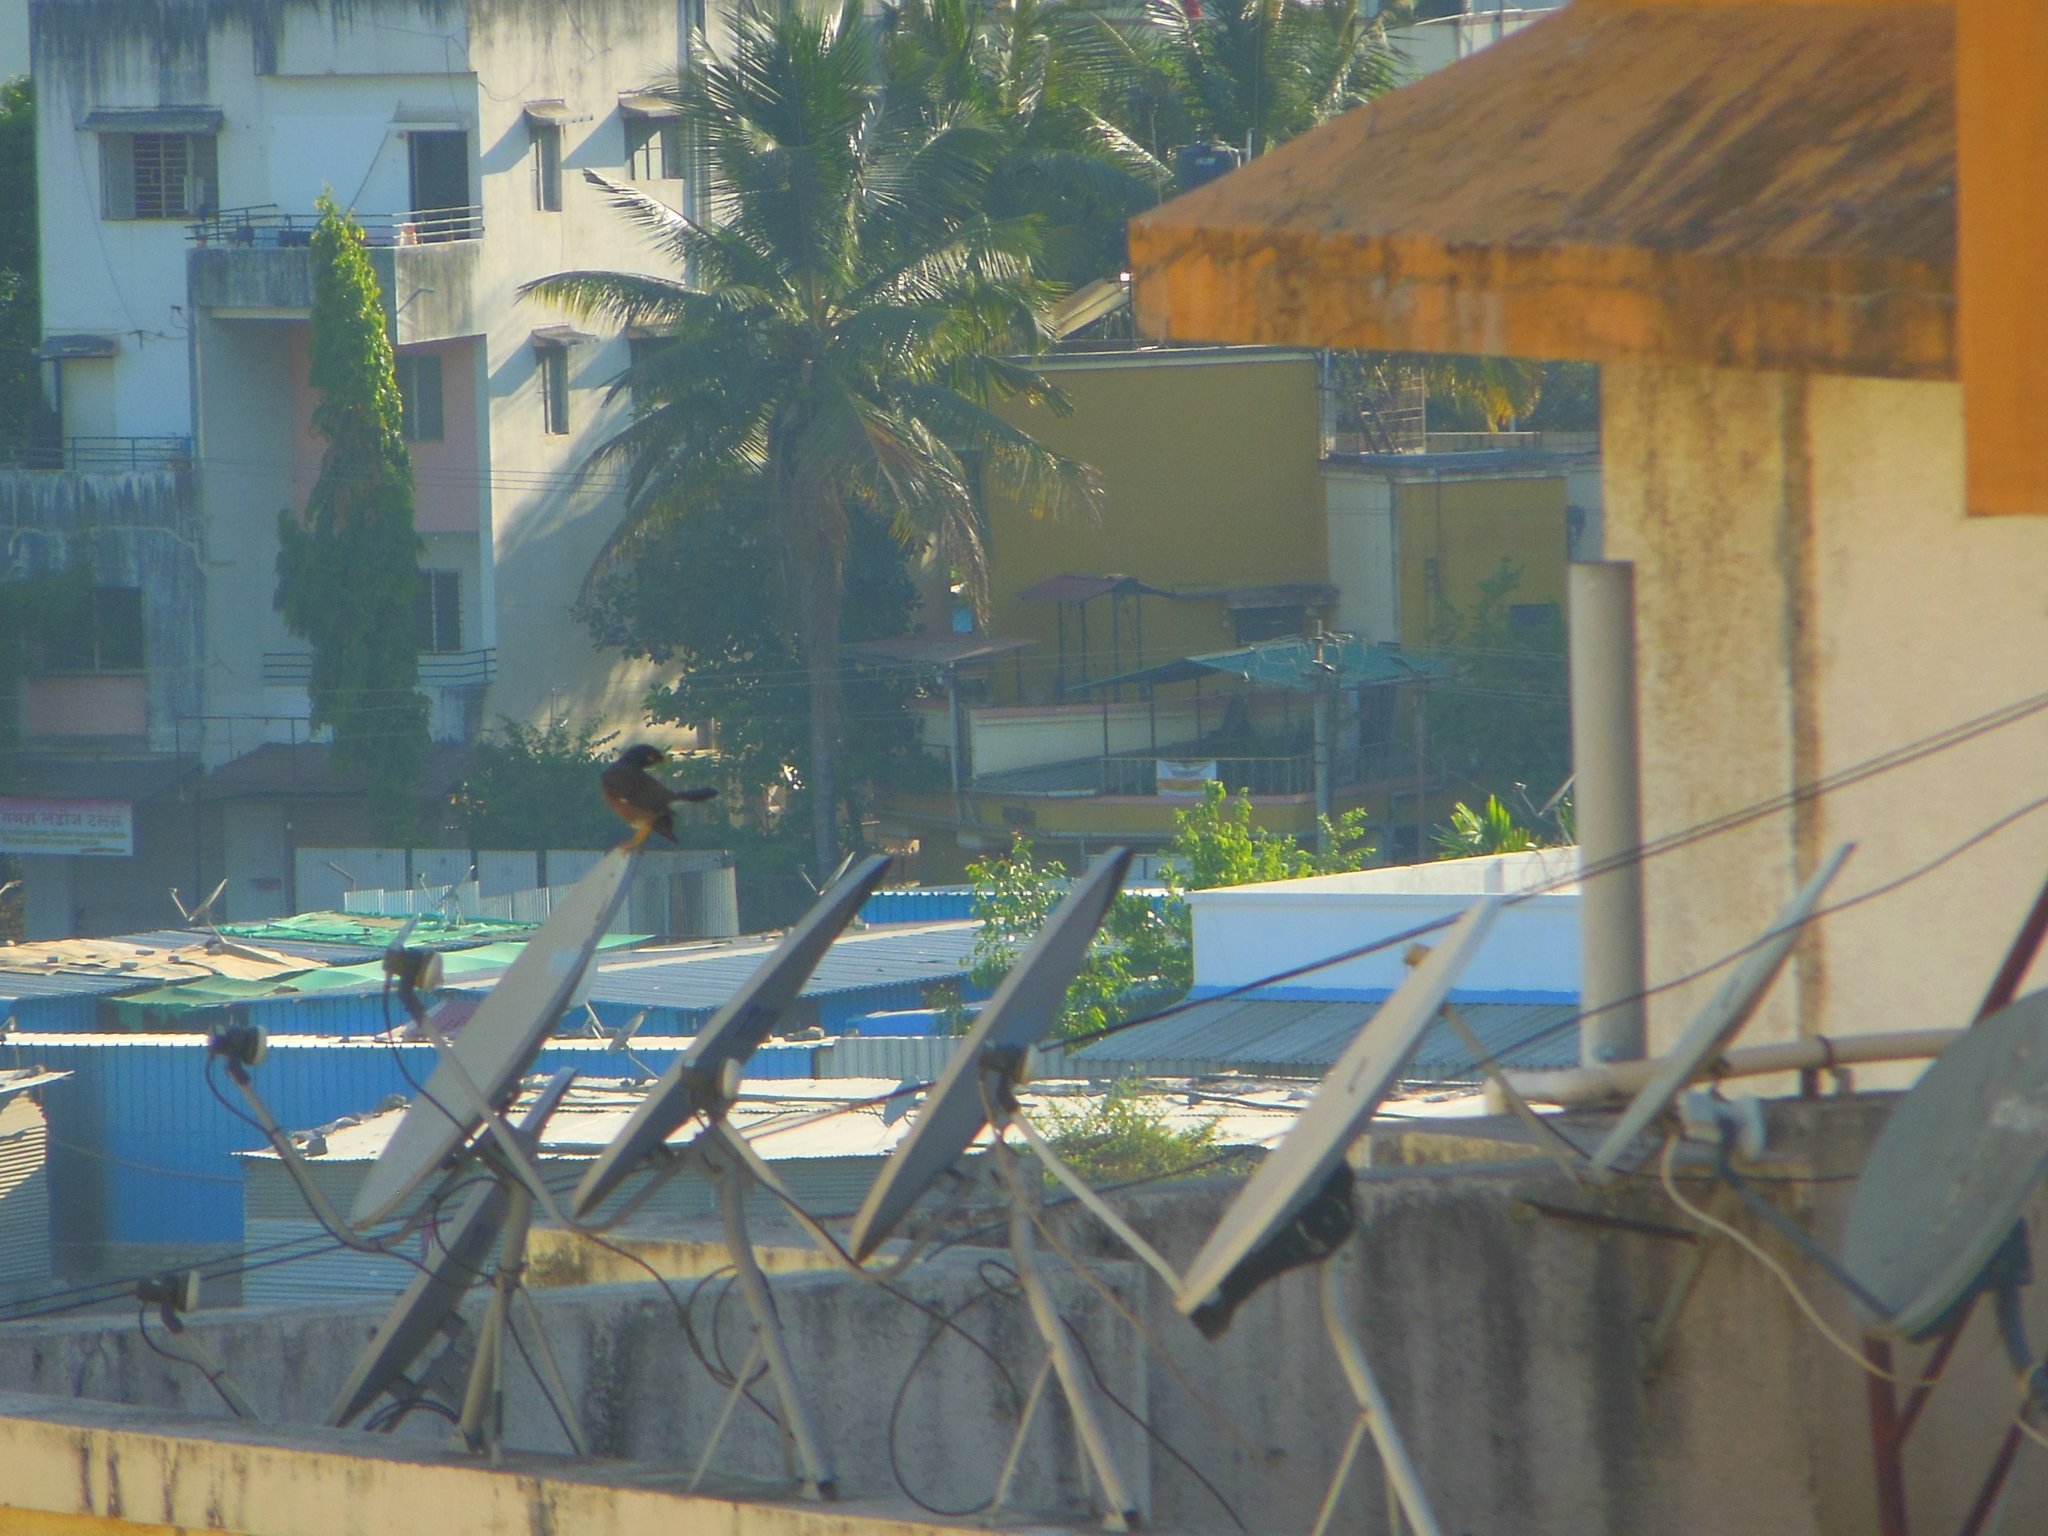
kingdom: Animalia
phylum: Chordata
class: Aves
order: Passeriformes
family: Sturnidae
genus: Acridotheres
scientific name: Acridotheres tristis
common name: Common myna
